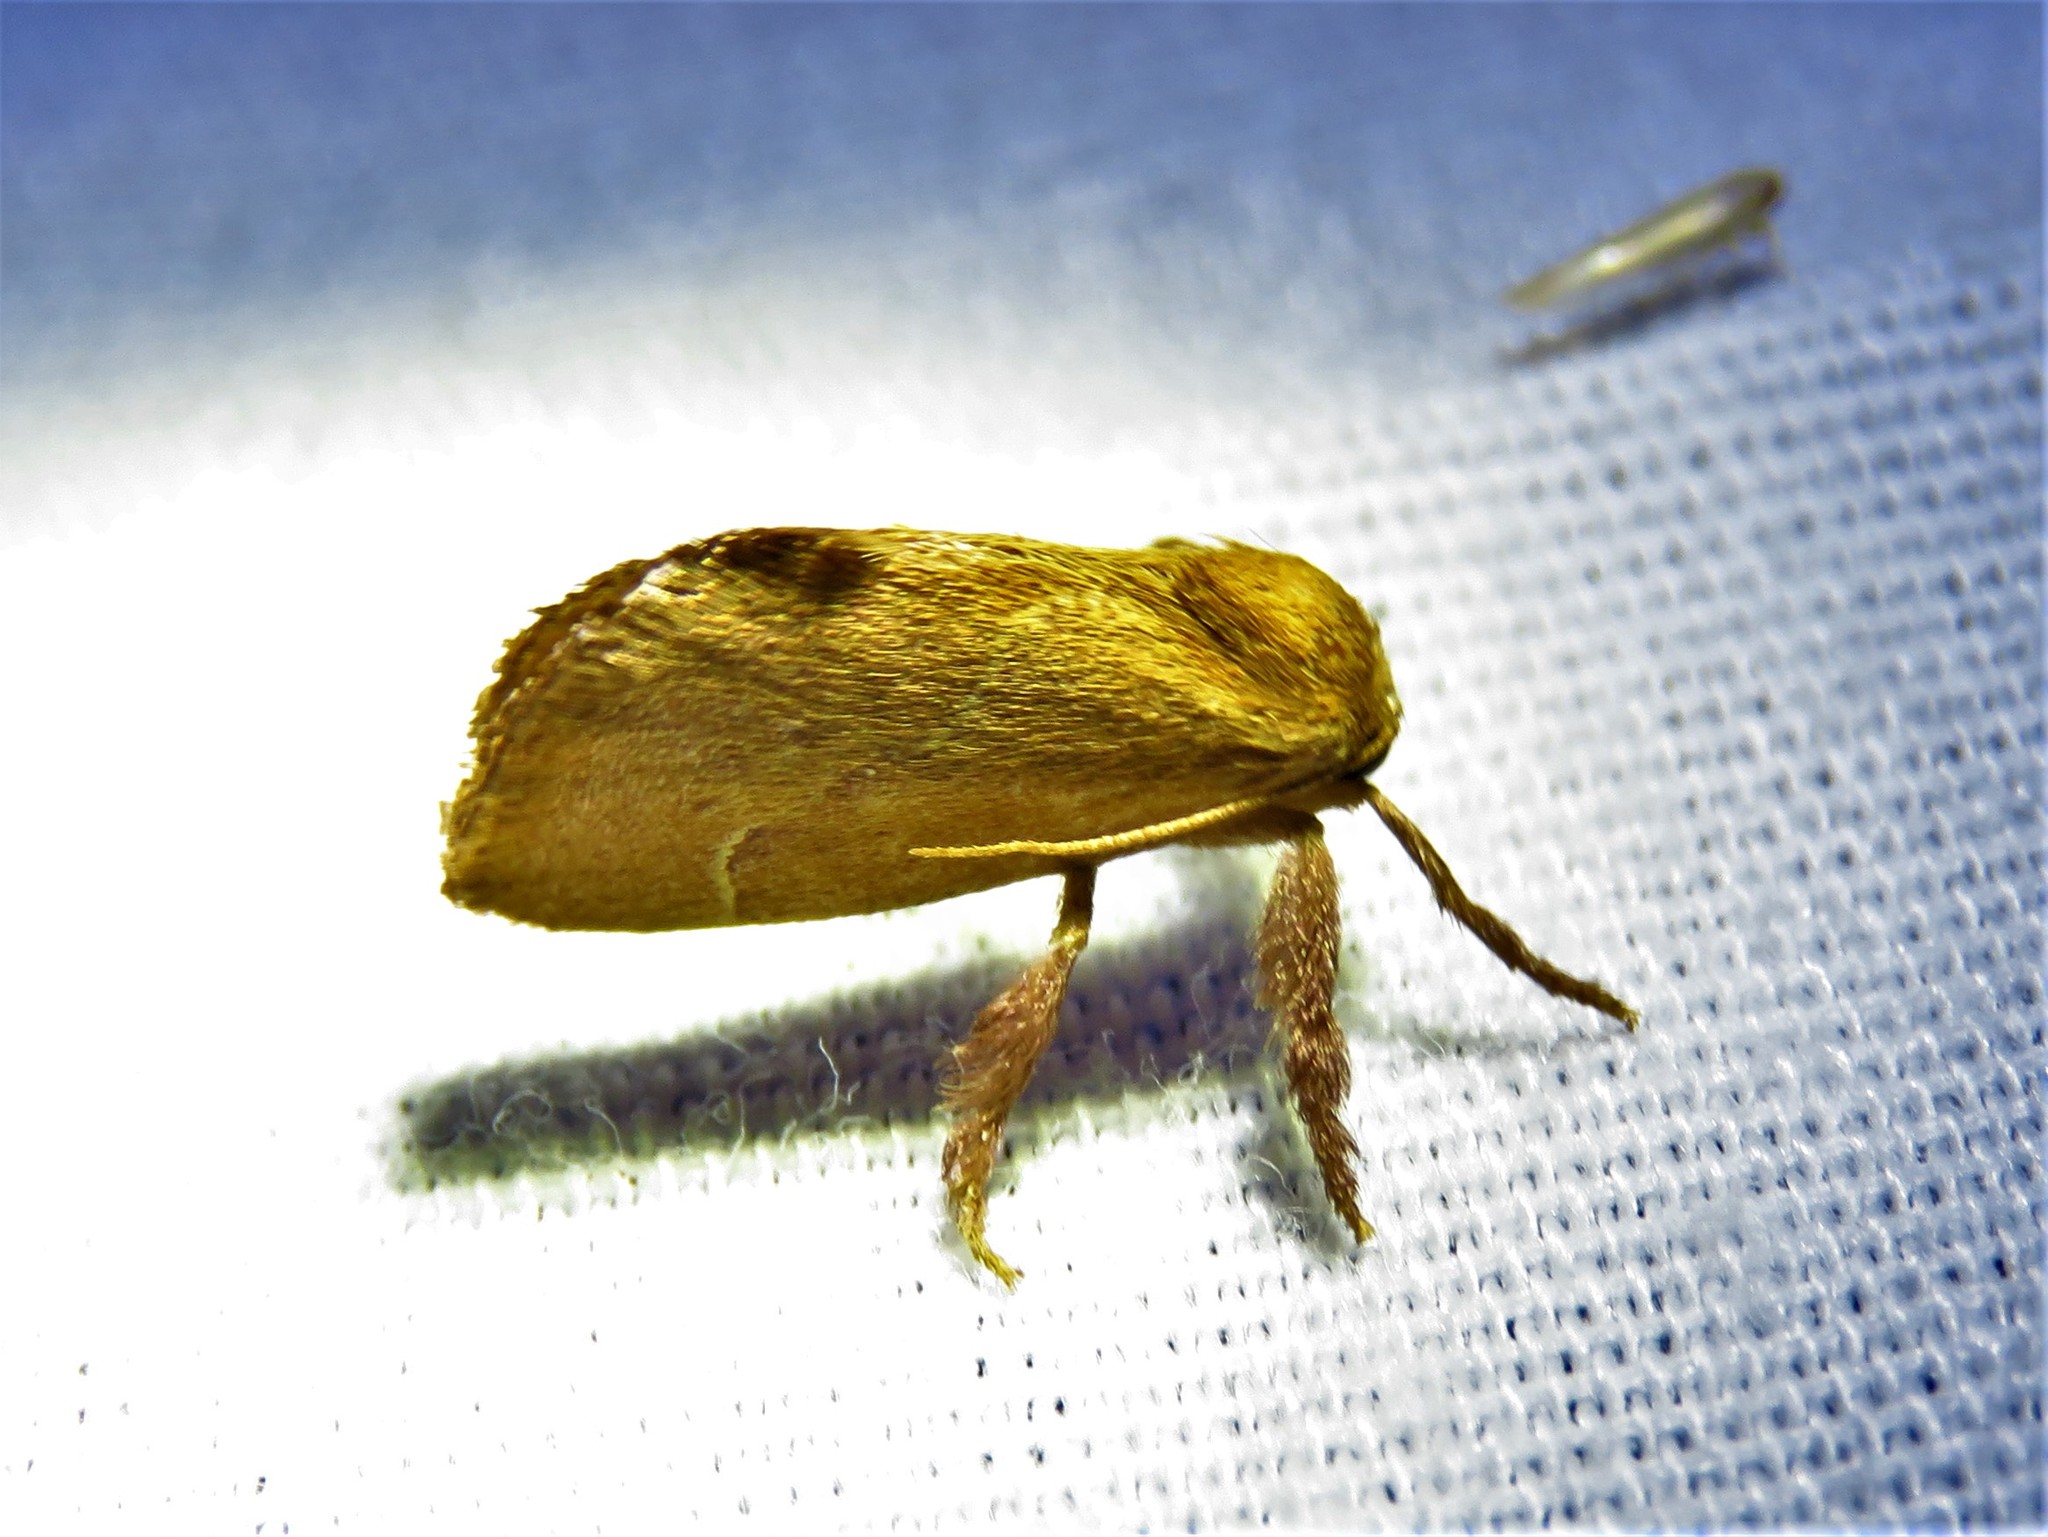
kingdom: Animalia
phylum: Arthropoda
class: Insecta
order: Lepidoptera
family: Limacodidae
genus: Adoneta
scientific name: Adoneta pygmaea
